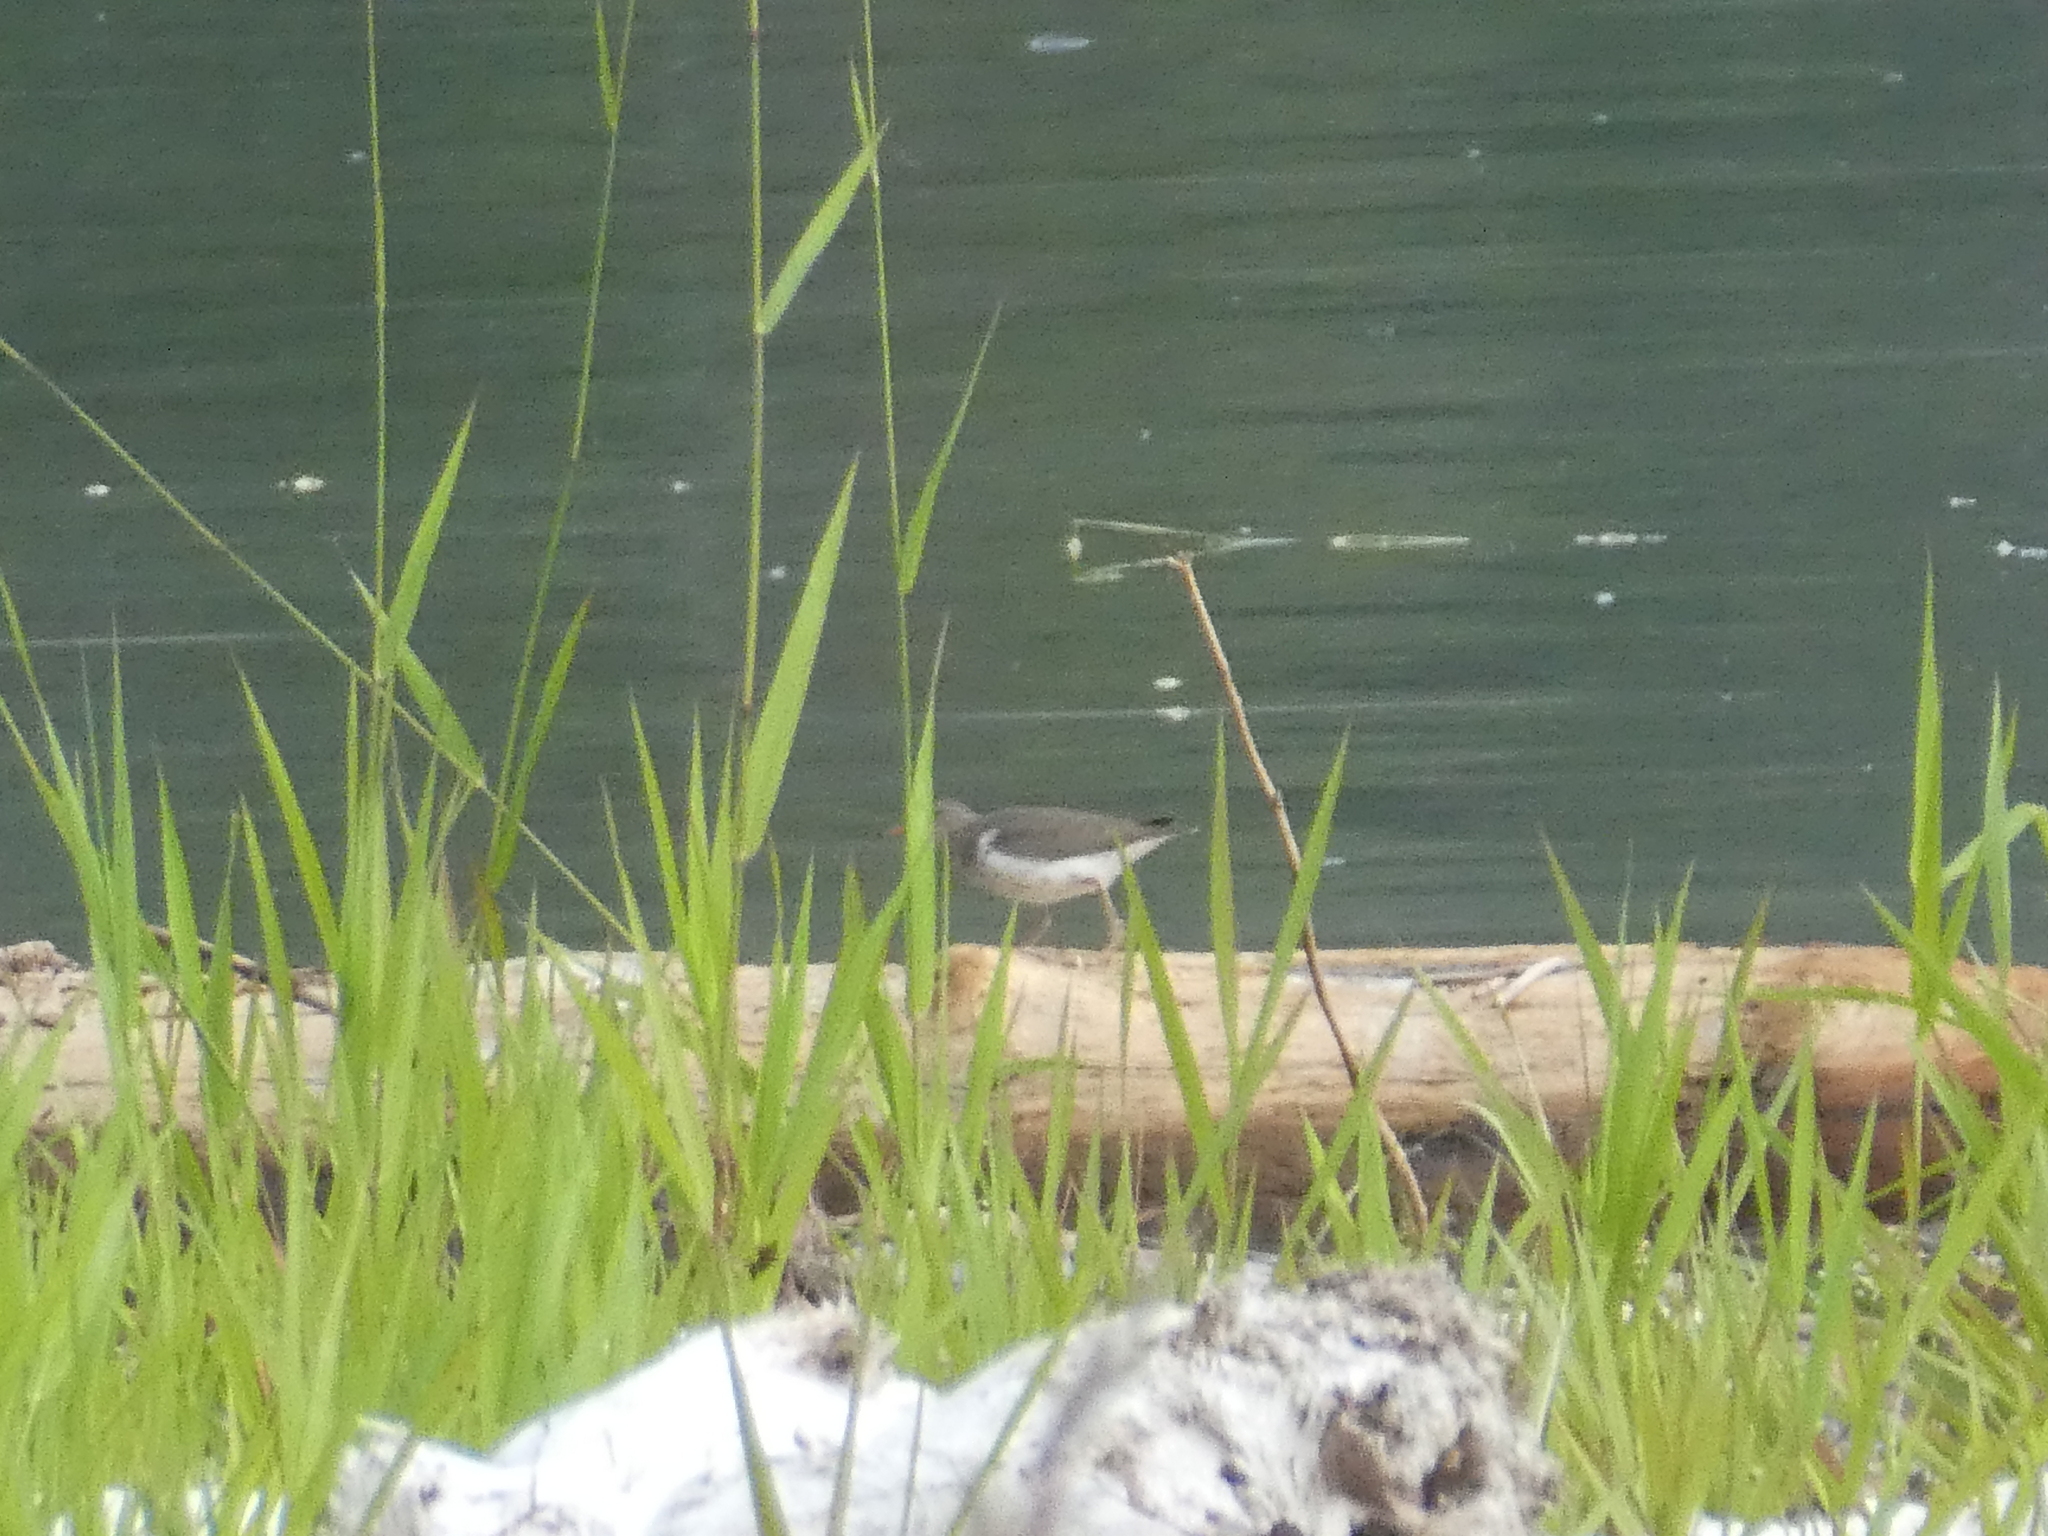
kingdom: Animalia
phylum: Chordata
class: Aves
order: Charadriiformes
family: Scolopacidae
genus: Actitis
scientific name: Actitis macularius
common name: Spotted sandpiper
